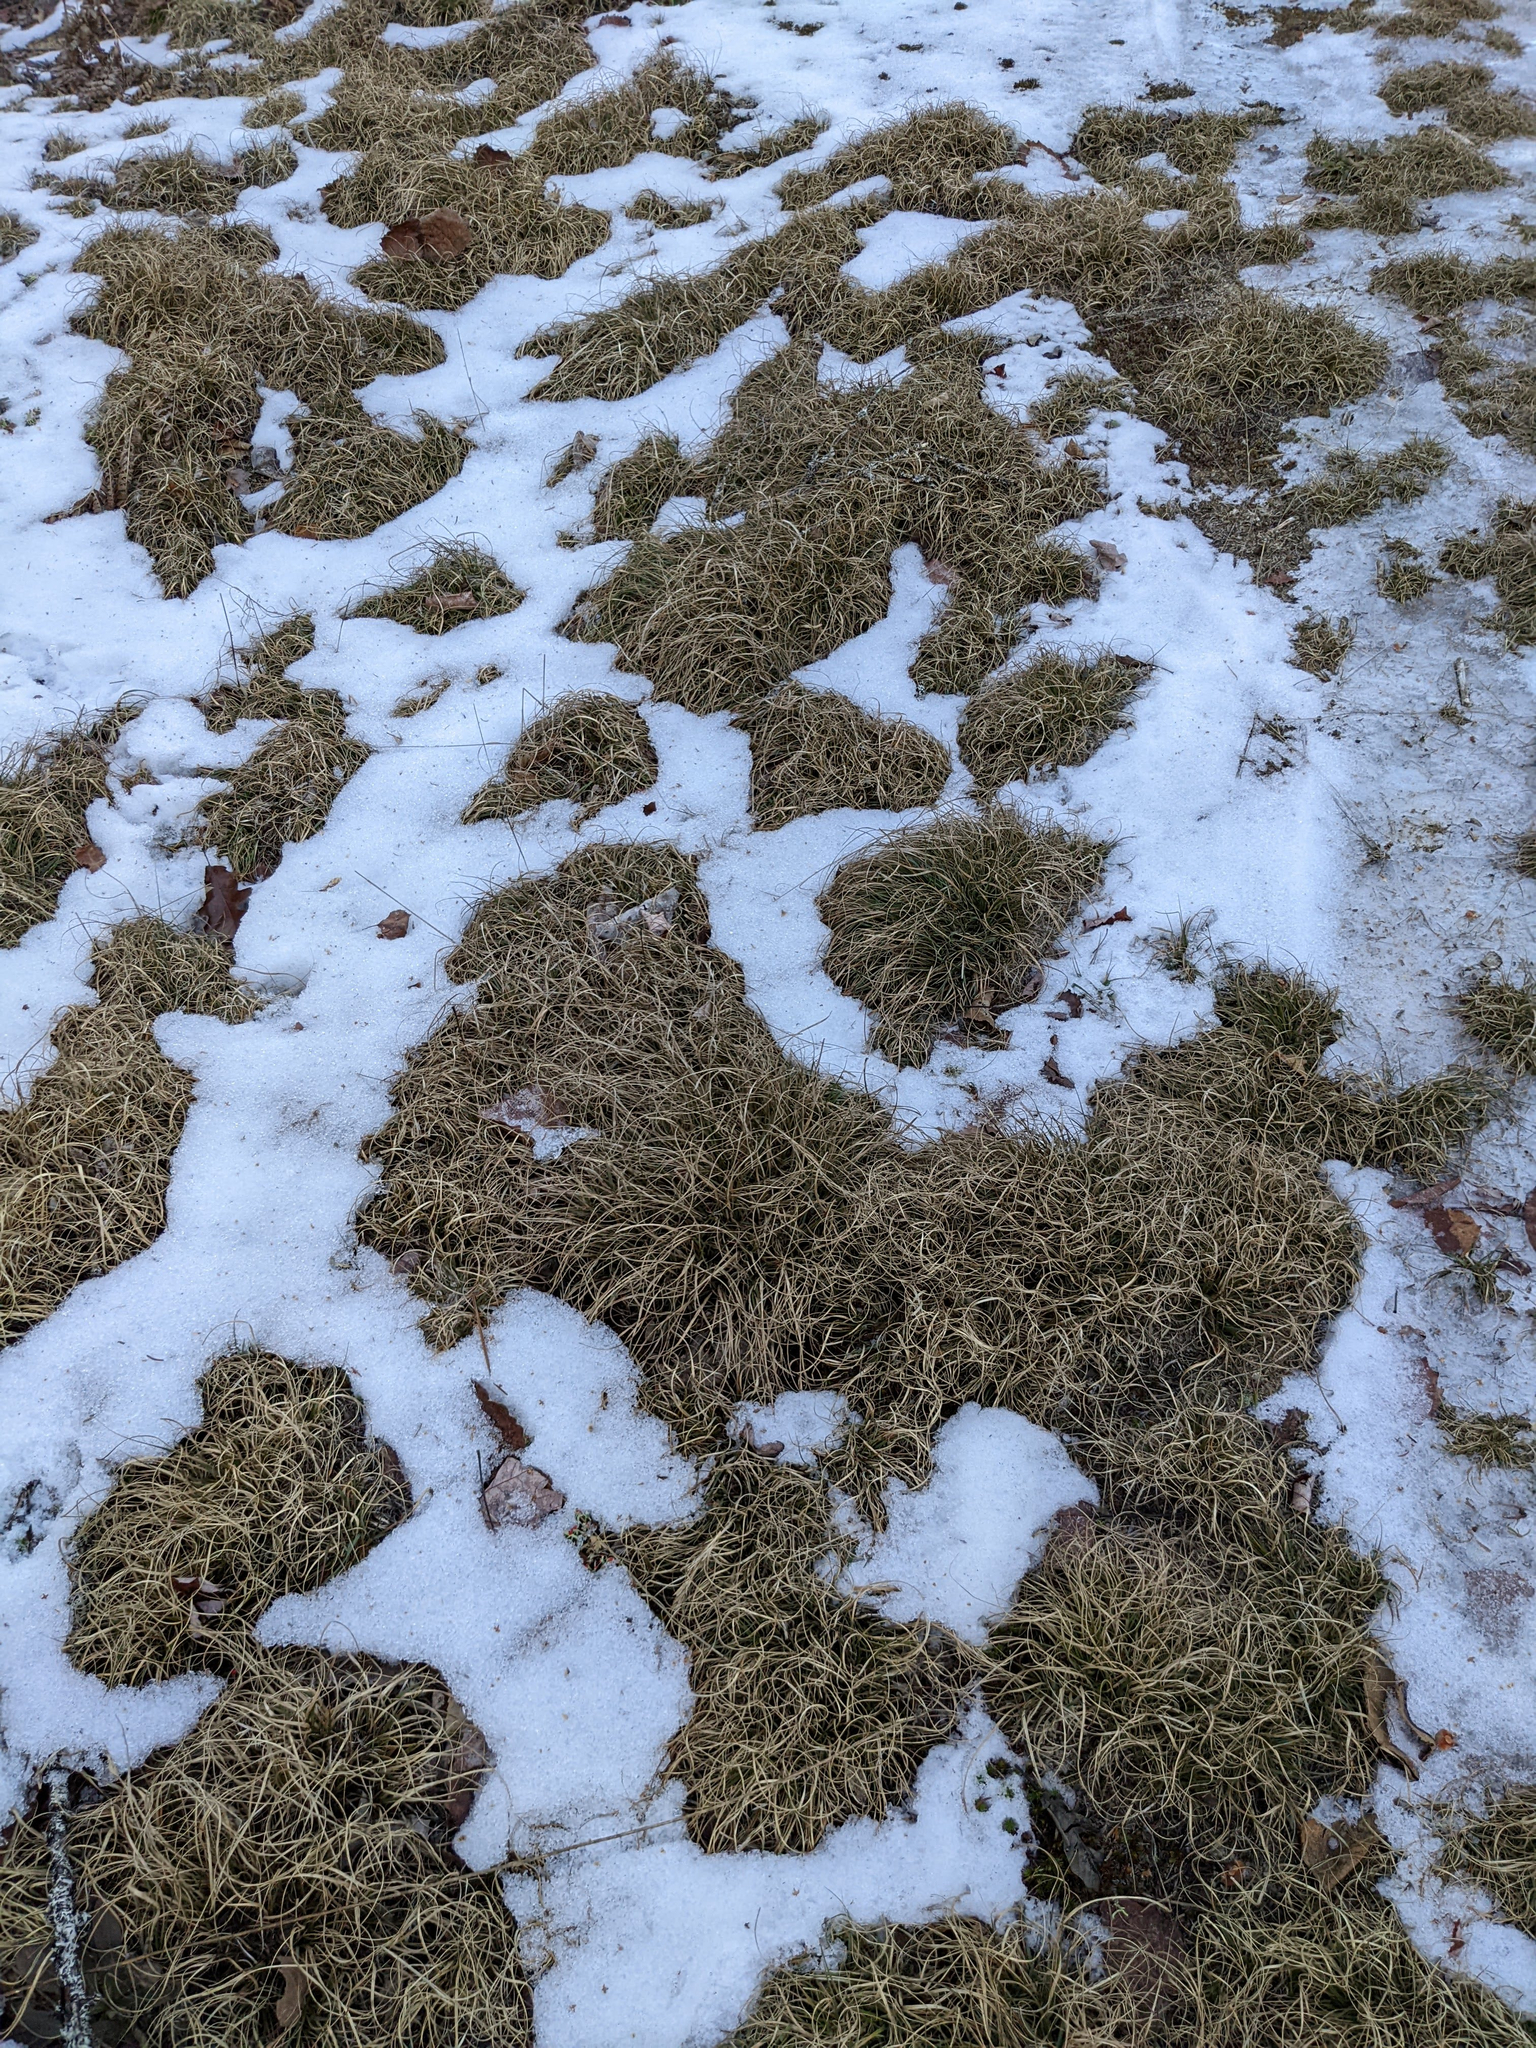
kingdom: Plantae
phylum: Tracheophyta
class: Liliopsida
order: Poales
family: Poaceae
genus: Danthonia
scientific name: Danthonia spicata
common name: Common wild oatgrass
